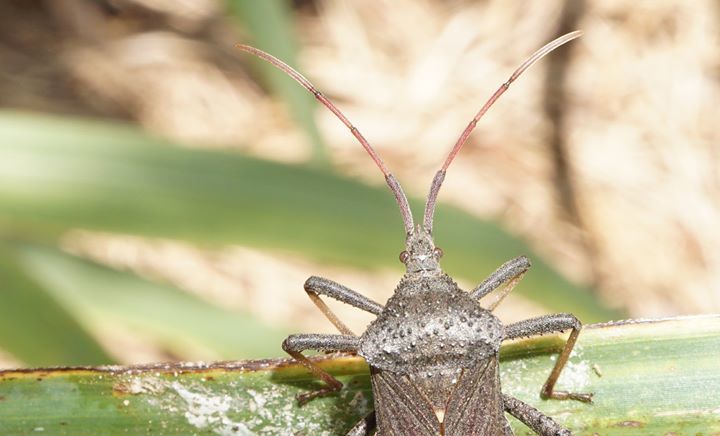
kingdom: Animalia
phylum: Arthropoda
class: Insecta
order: Hemiptera
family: Coreidae
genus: Acanthocephala
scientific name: Acanthocephala femorata
